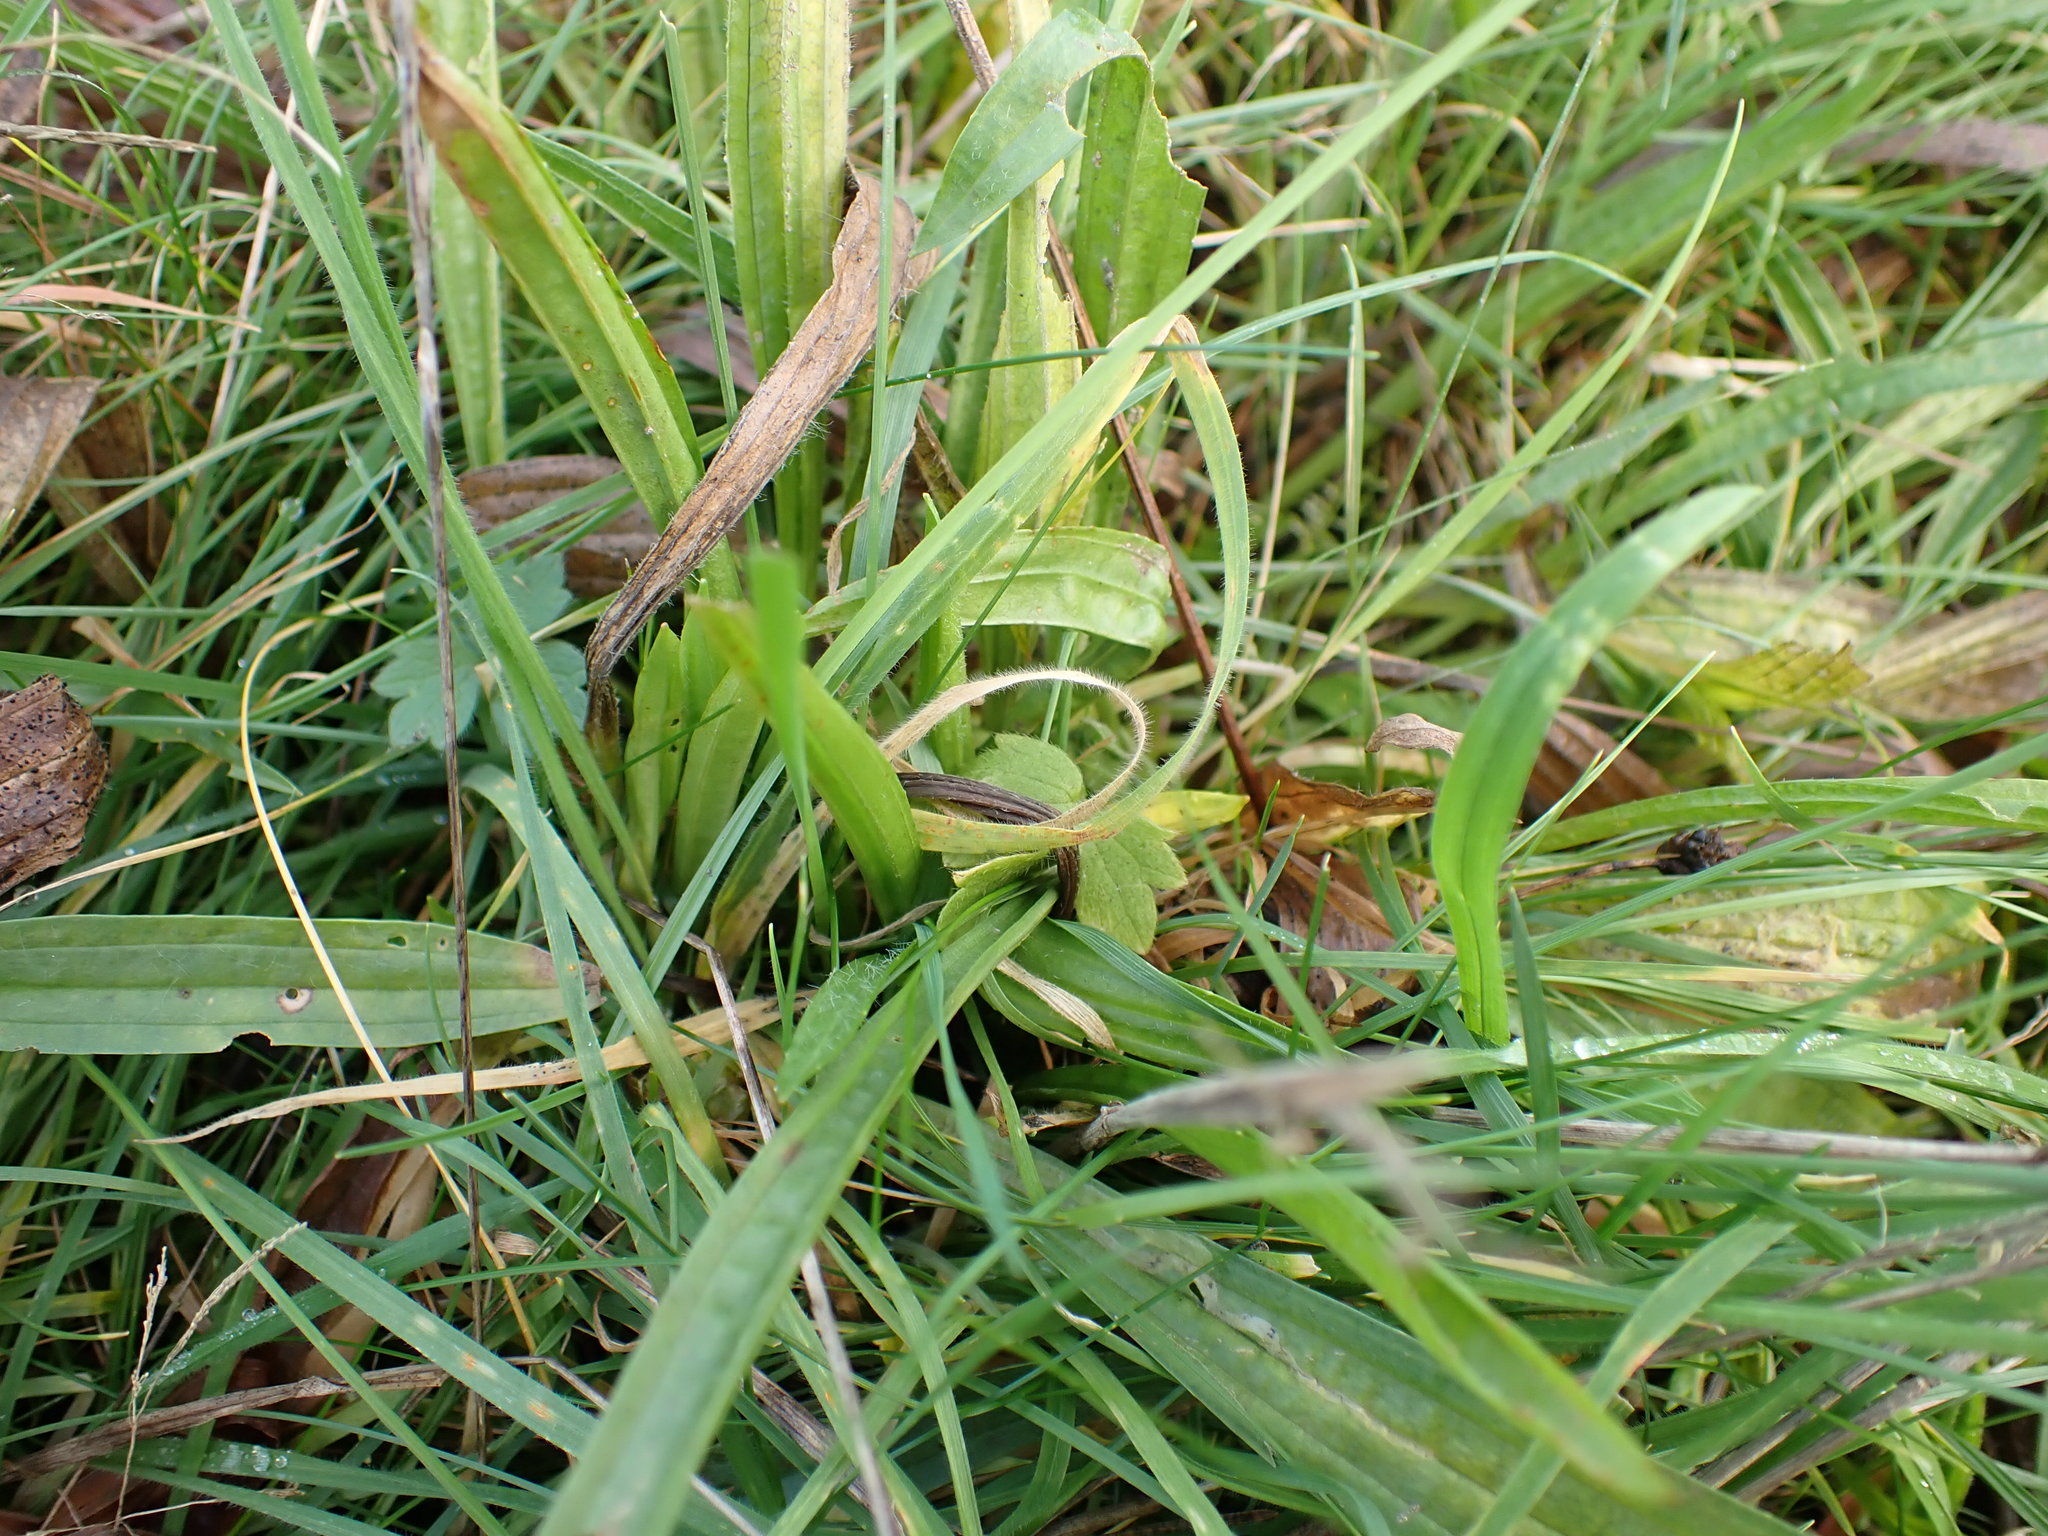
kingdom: Plantae
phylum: Tracheophyta
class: Magnoliopsida
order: Lamiales
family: Plantaginaceae
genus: Plantago
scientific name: Plantago lanceolata
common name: Ribwort plantain
